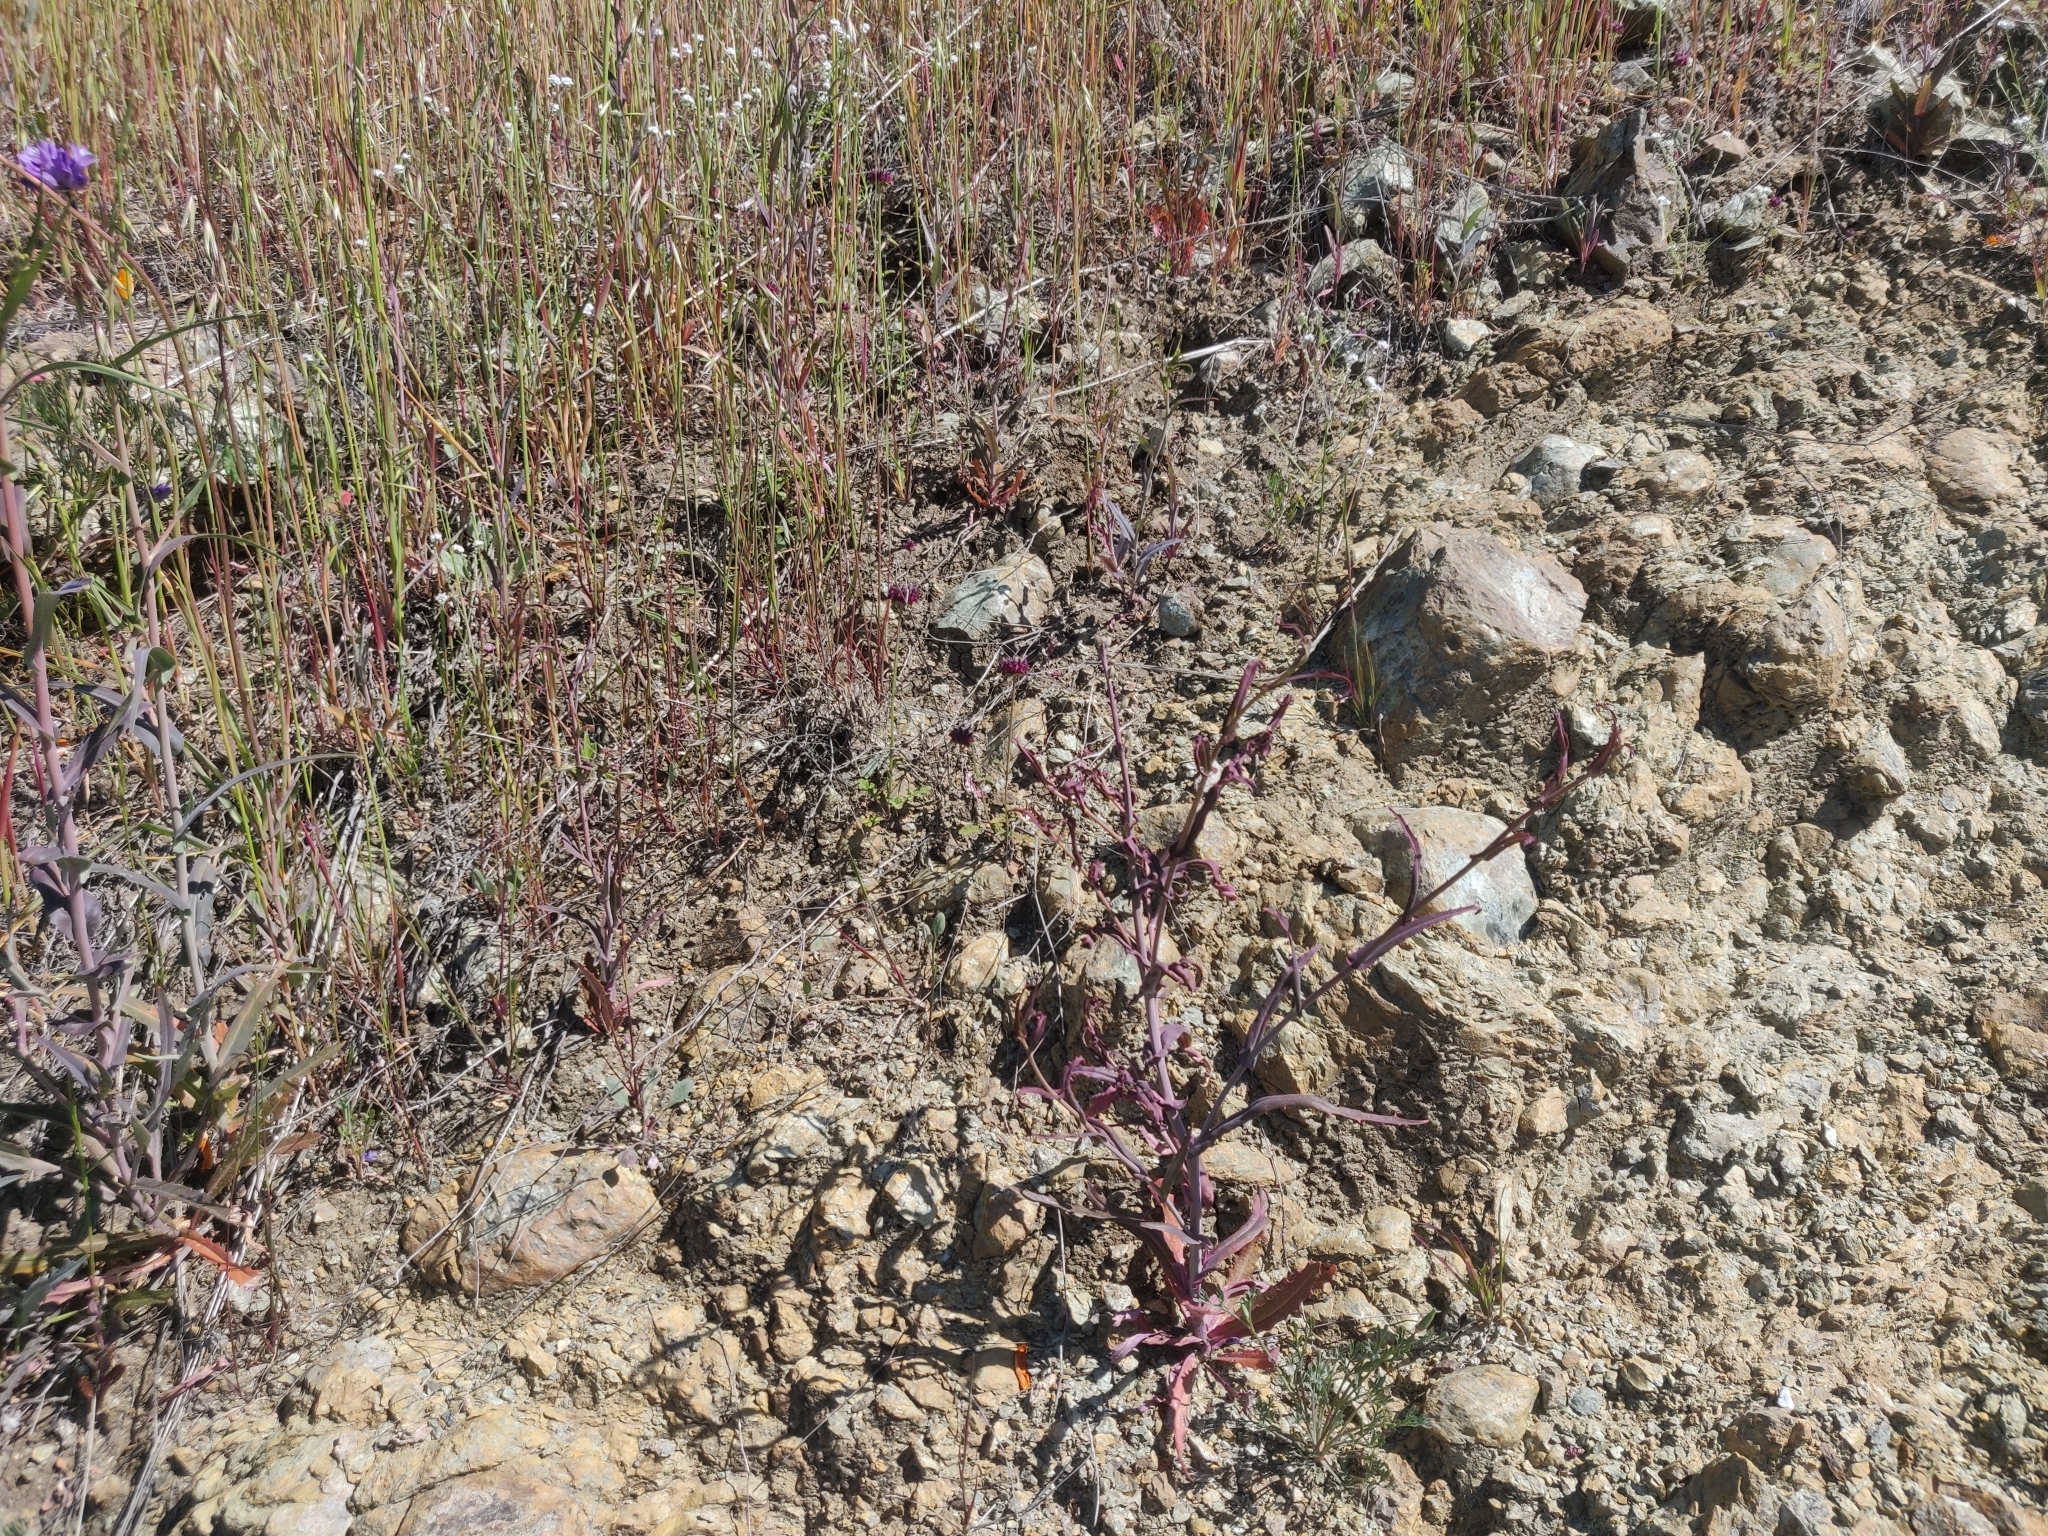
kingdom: Plantae
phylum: Tracheophyta
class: Magnoliopsida
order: Brassicales
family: Brassicaceae
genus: Streptanthus
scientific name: Streptanthus glandulosus
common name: Jewel-flower
